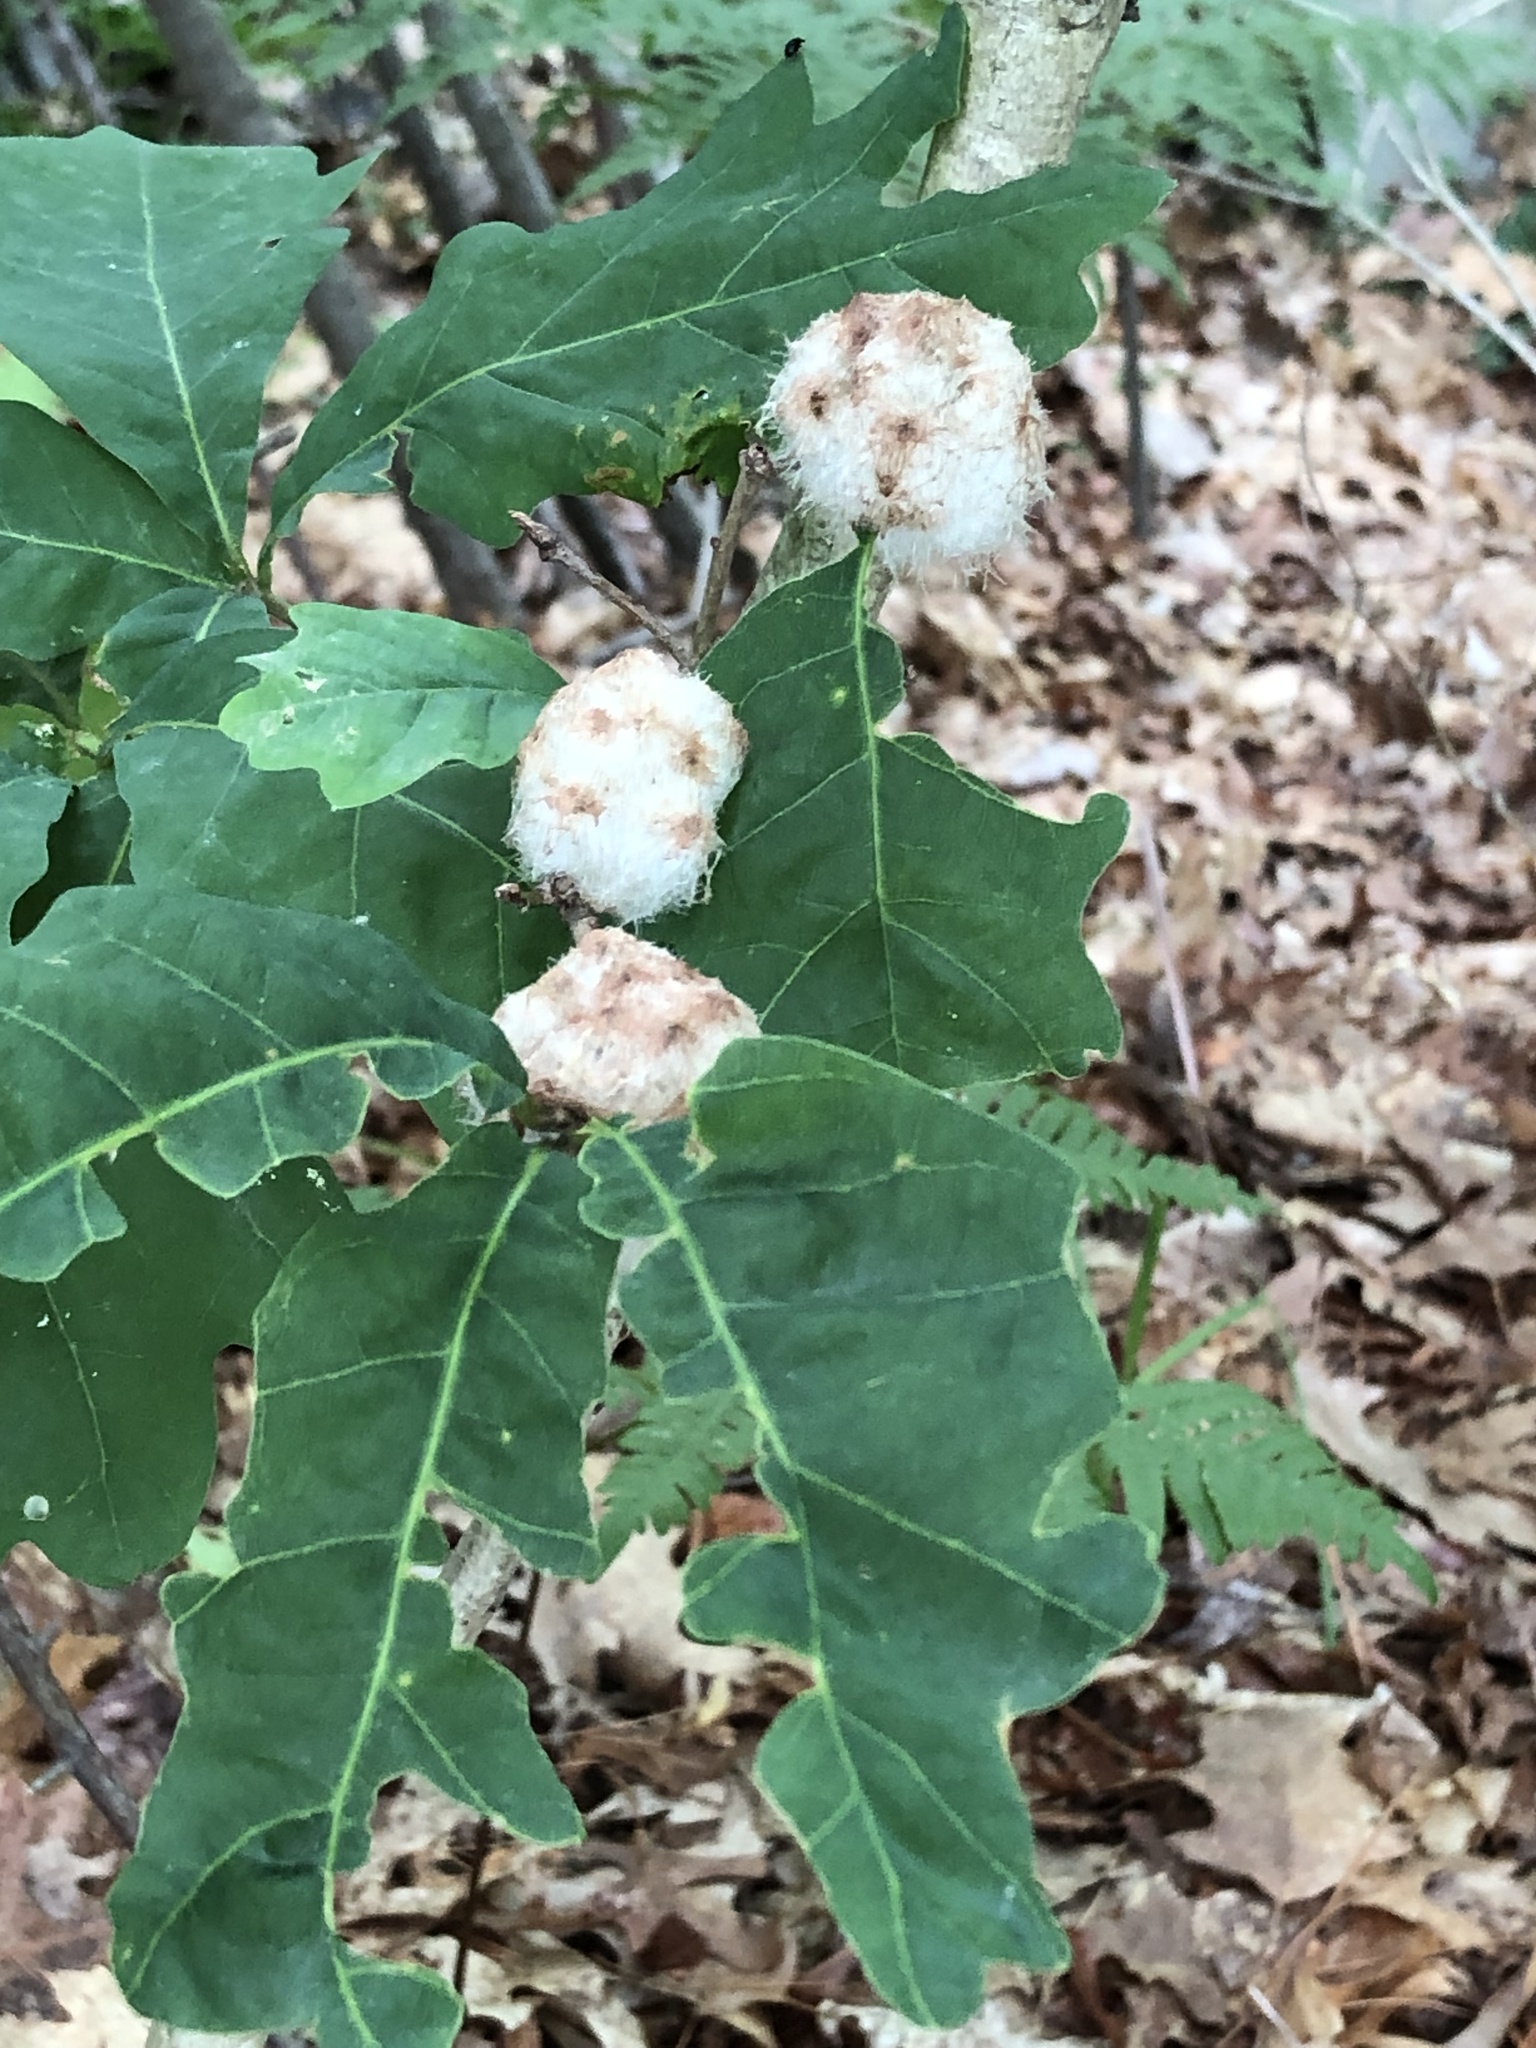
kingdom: Animalia
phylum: Arthropoda
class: Insecta
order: Hymenoptera
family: Cynipidae
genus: Callirhytis
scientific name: Callirhytis
